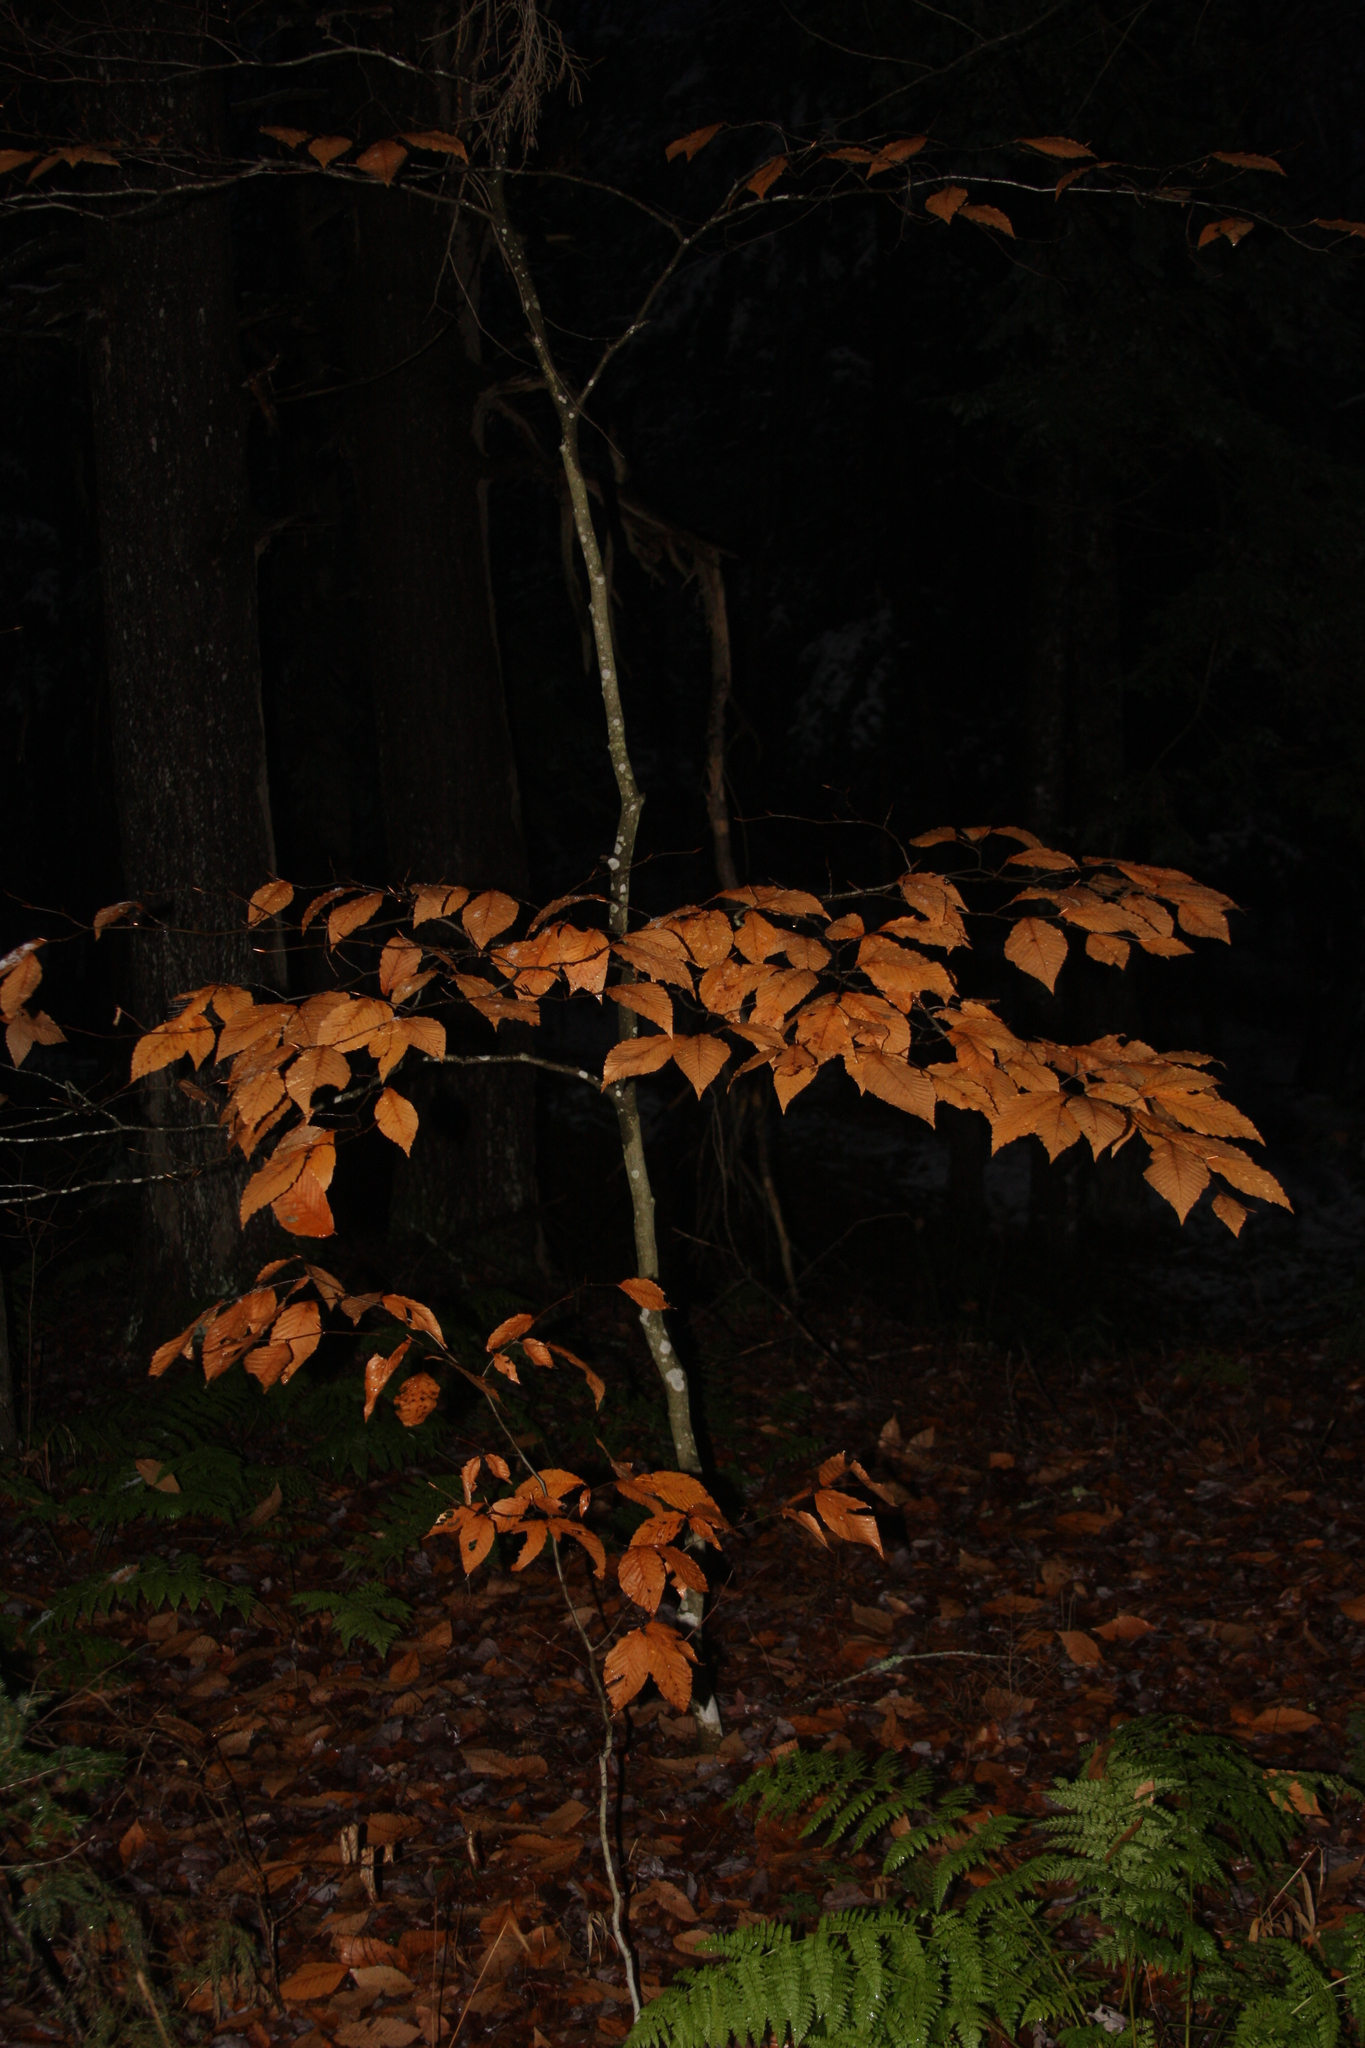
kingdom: Plantae
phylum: Tracheophyta
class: Magnoliopsida
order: Fagales
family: Fagaceae
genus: Fagus
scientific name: Fagus grandifolia
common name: American beech
